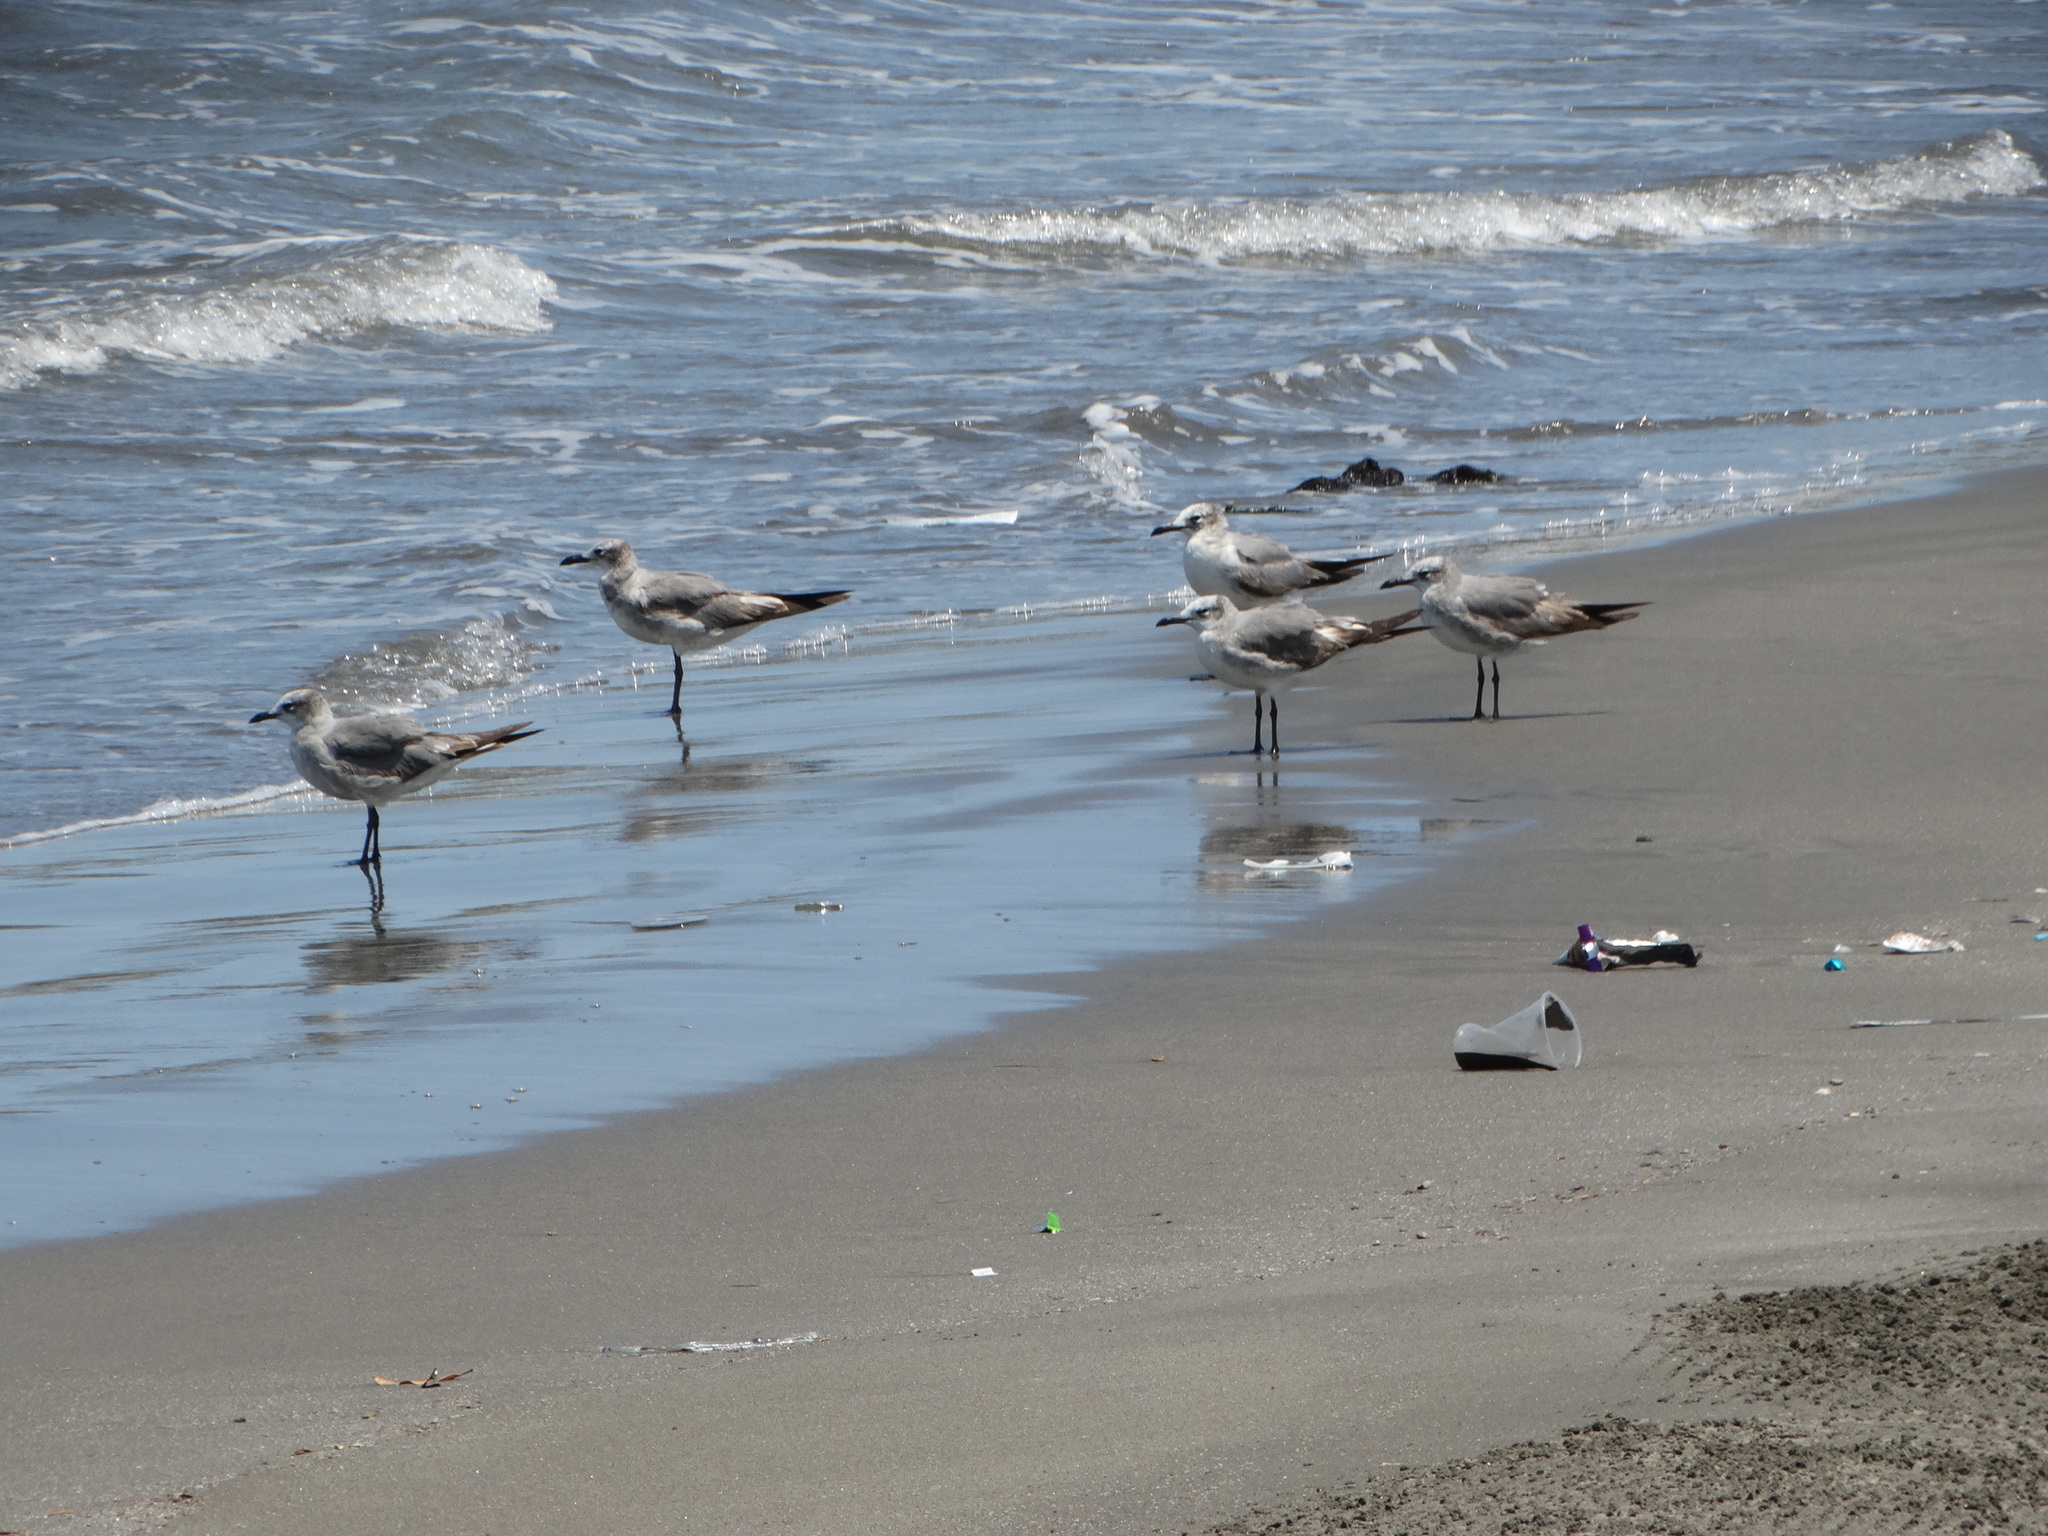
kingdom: Animalia
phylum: Chordata
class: Aves
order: Charadriiformes
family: Laridae
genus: Leucophaeus
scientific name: Leucophaeus atricilla
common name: Laughing gull
